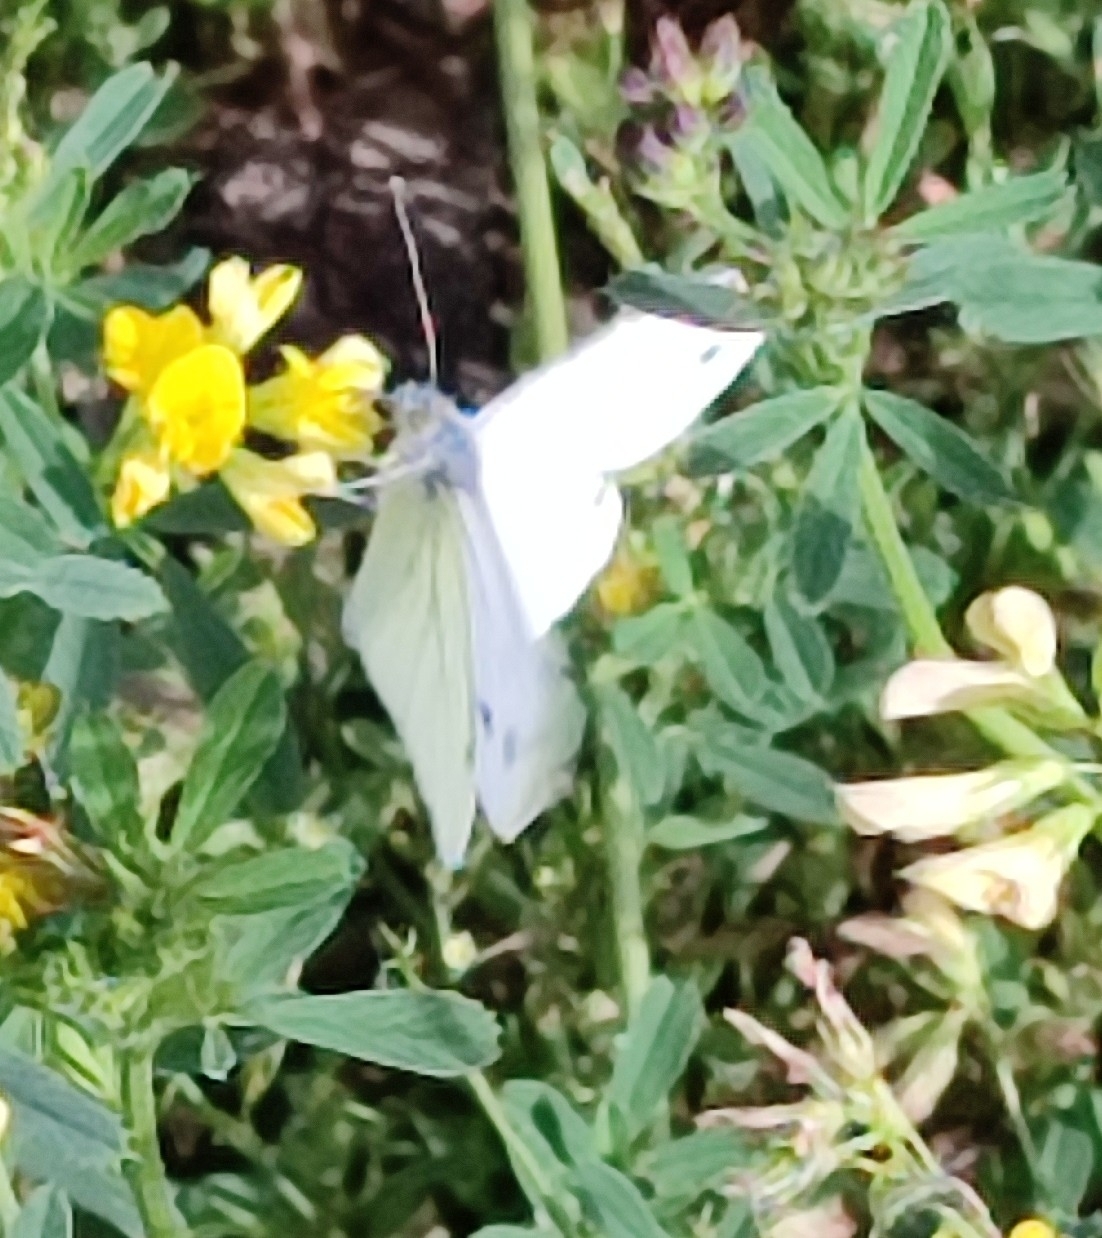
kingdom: Animalia
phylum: Arthropoda
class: Insecta
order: Lepidoptera
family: Pieridae
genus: Pieris
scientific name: Pieris napi
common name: Green-veined white
